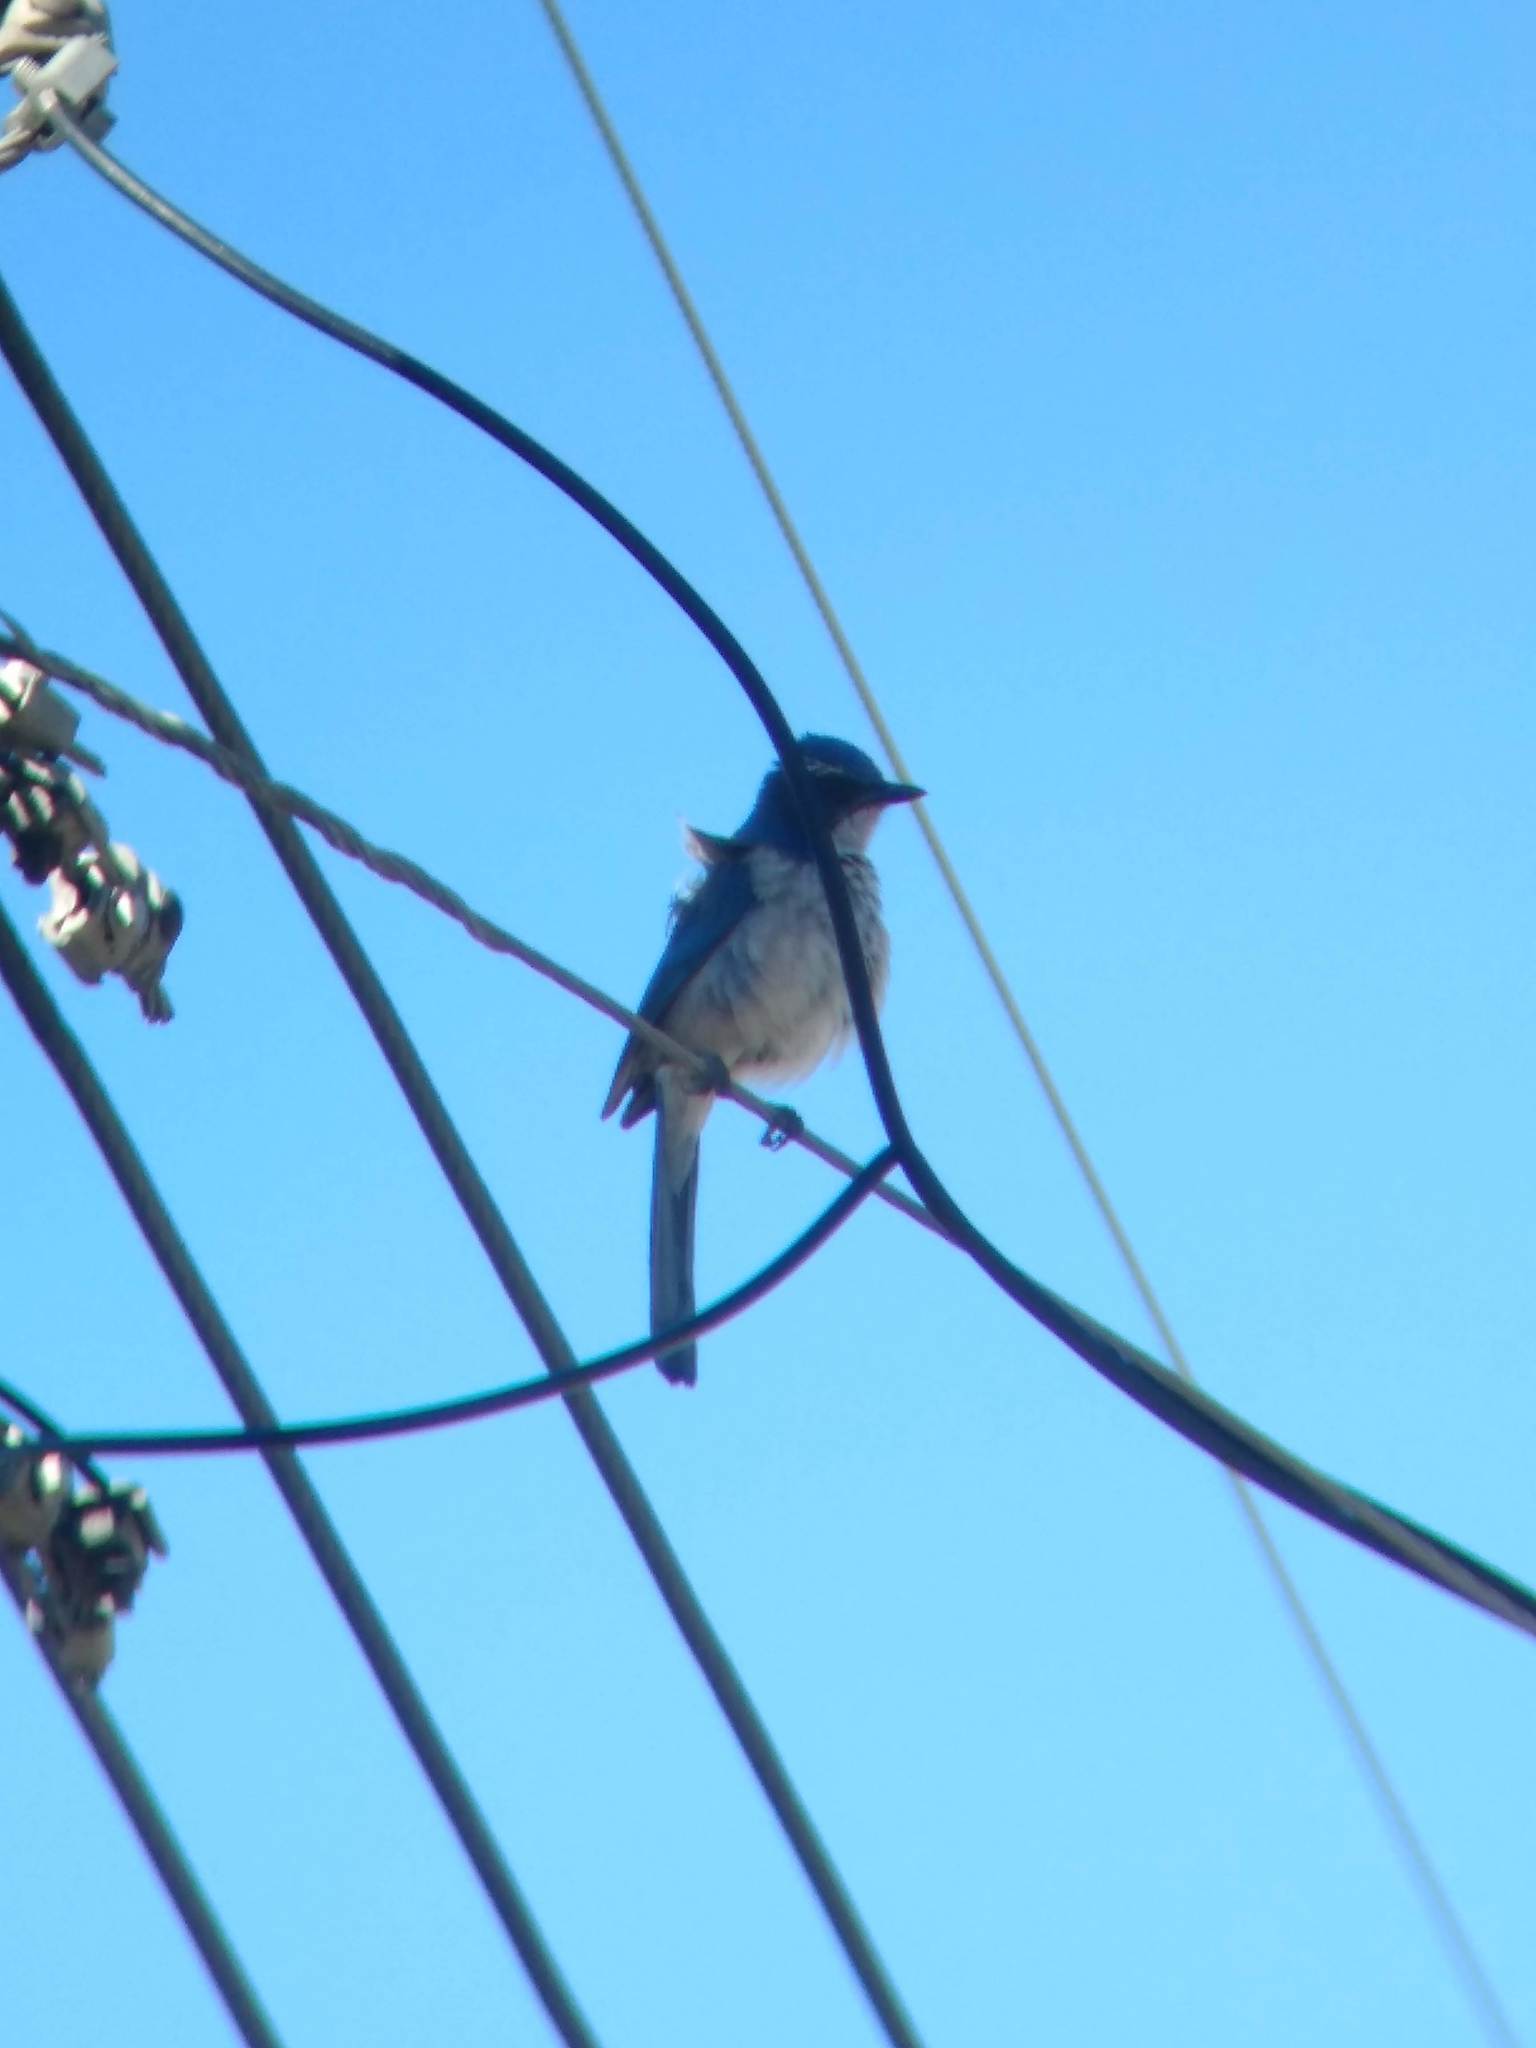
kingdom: Animalia
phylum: Chordata
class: Aves
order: Passeriformes
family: Corvidae
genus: Aphelocoma
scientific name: Aphelocoma californica
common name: California scrub-jay
